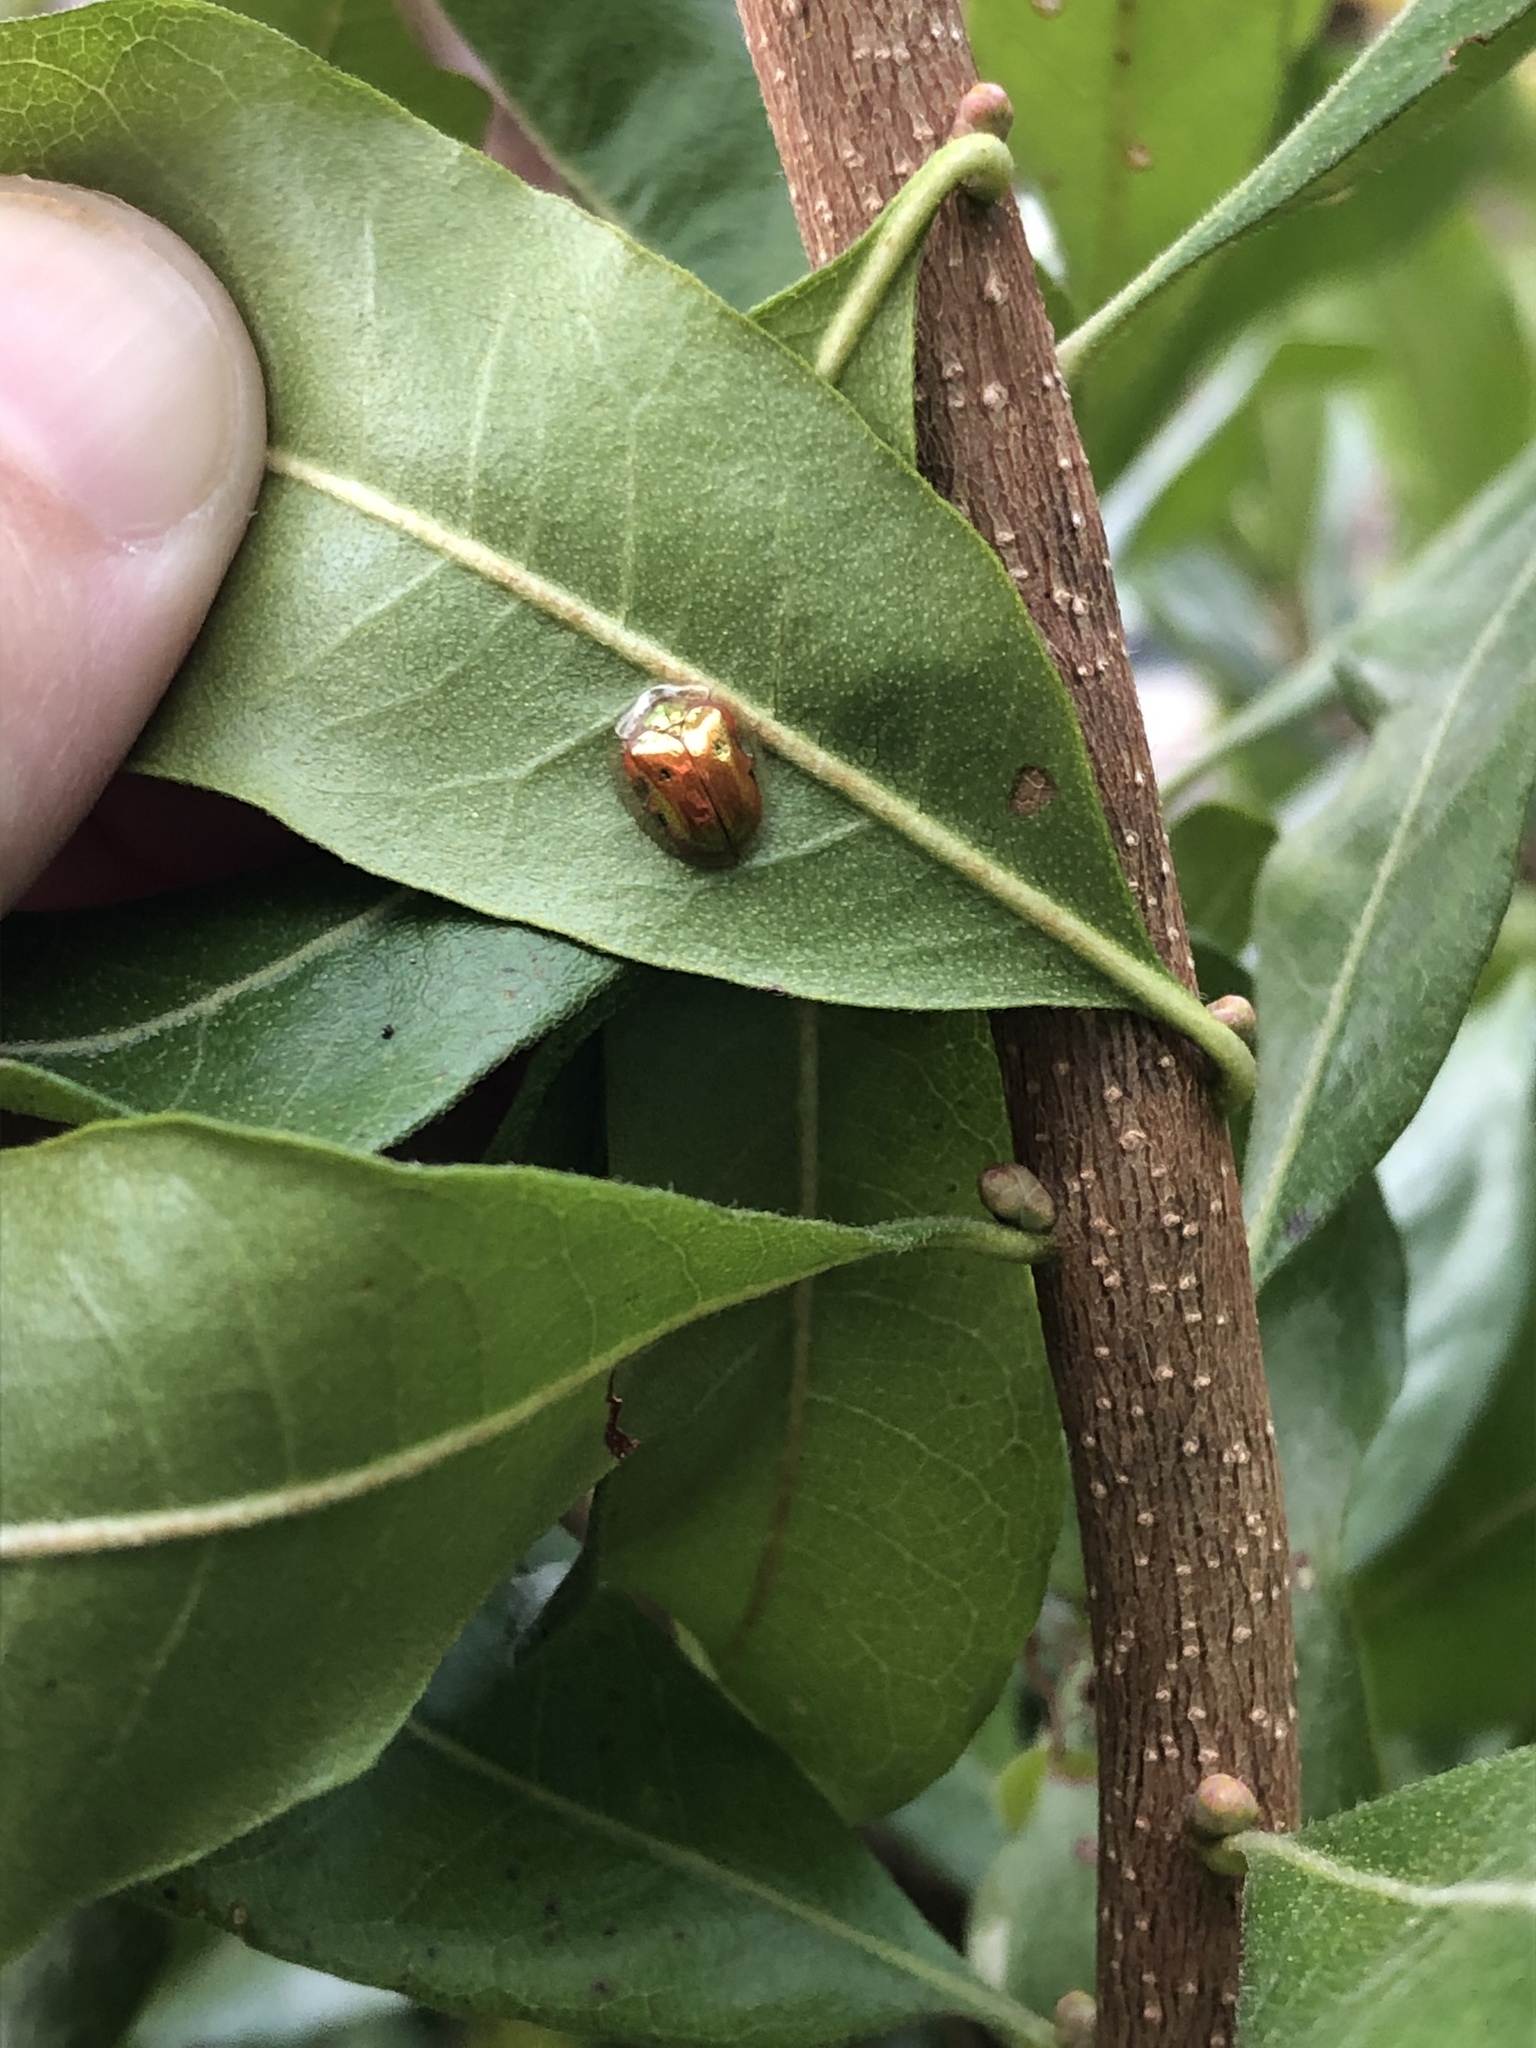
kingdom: Animalia
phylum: Arthropoda
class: Insecta
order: Coleoptera
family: Chrysomelidae
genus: Charidotella
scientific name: Charidotella sexpunctata
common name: Golden tortoise beetle
